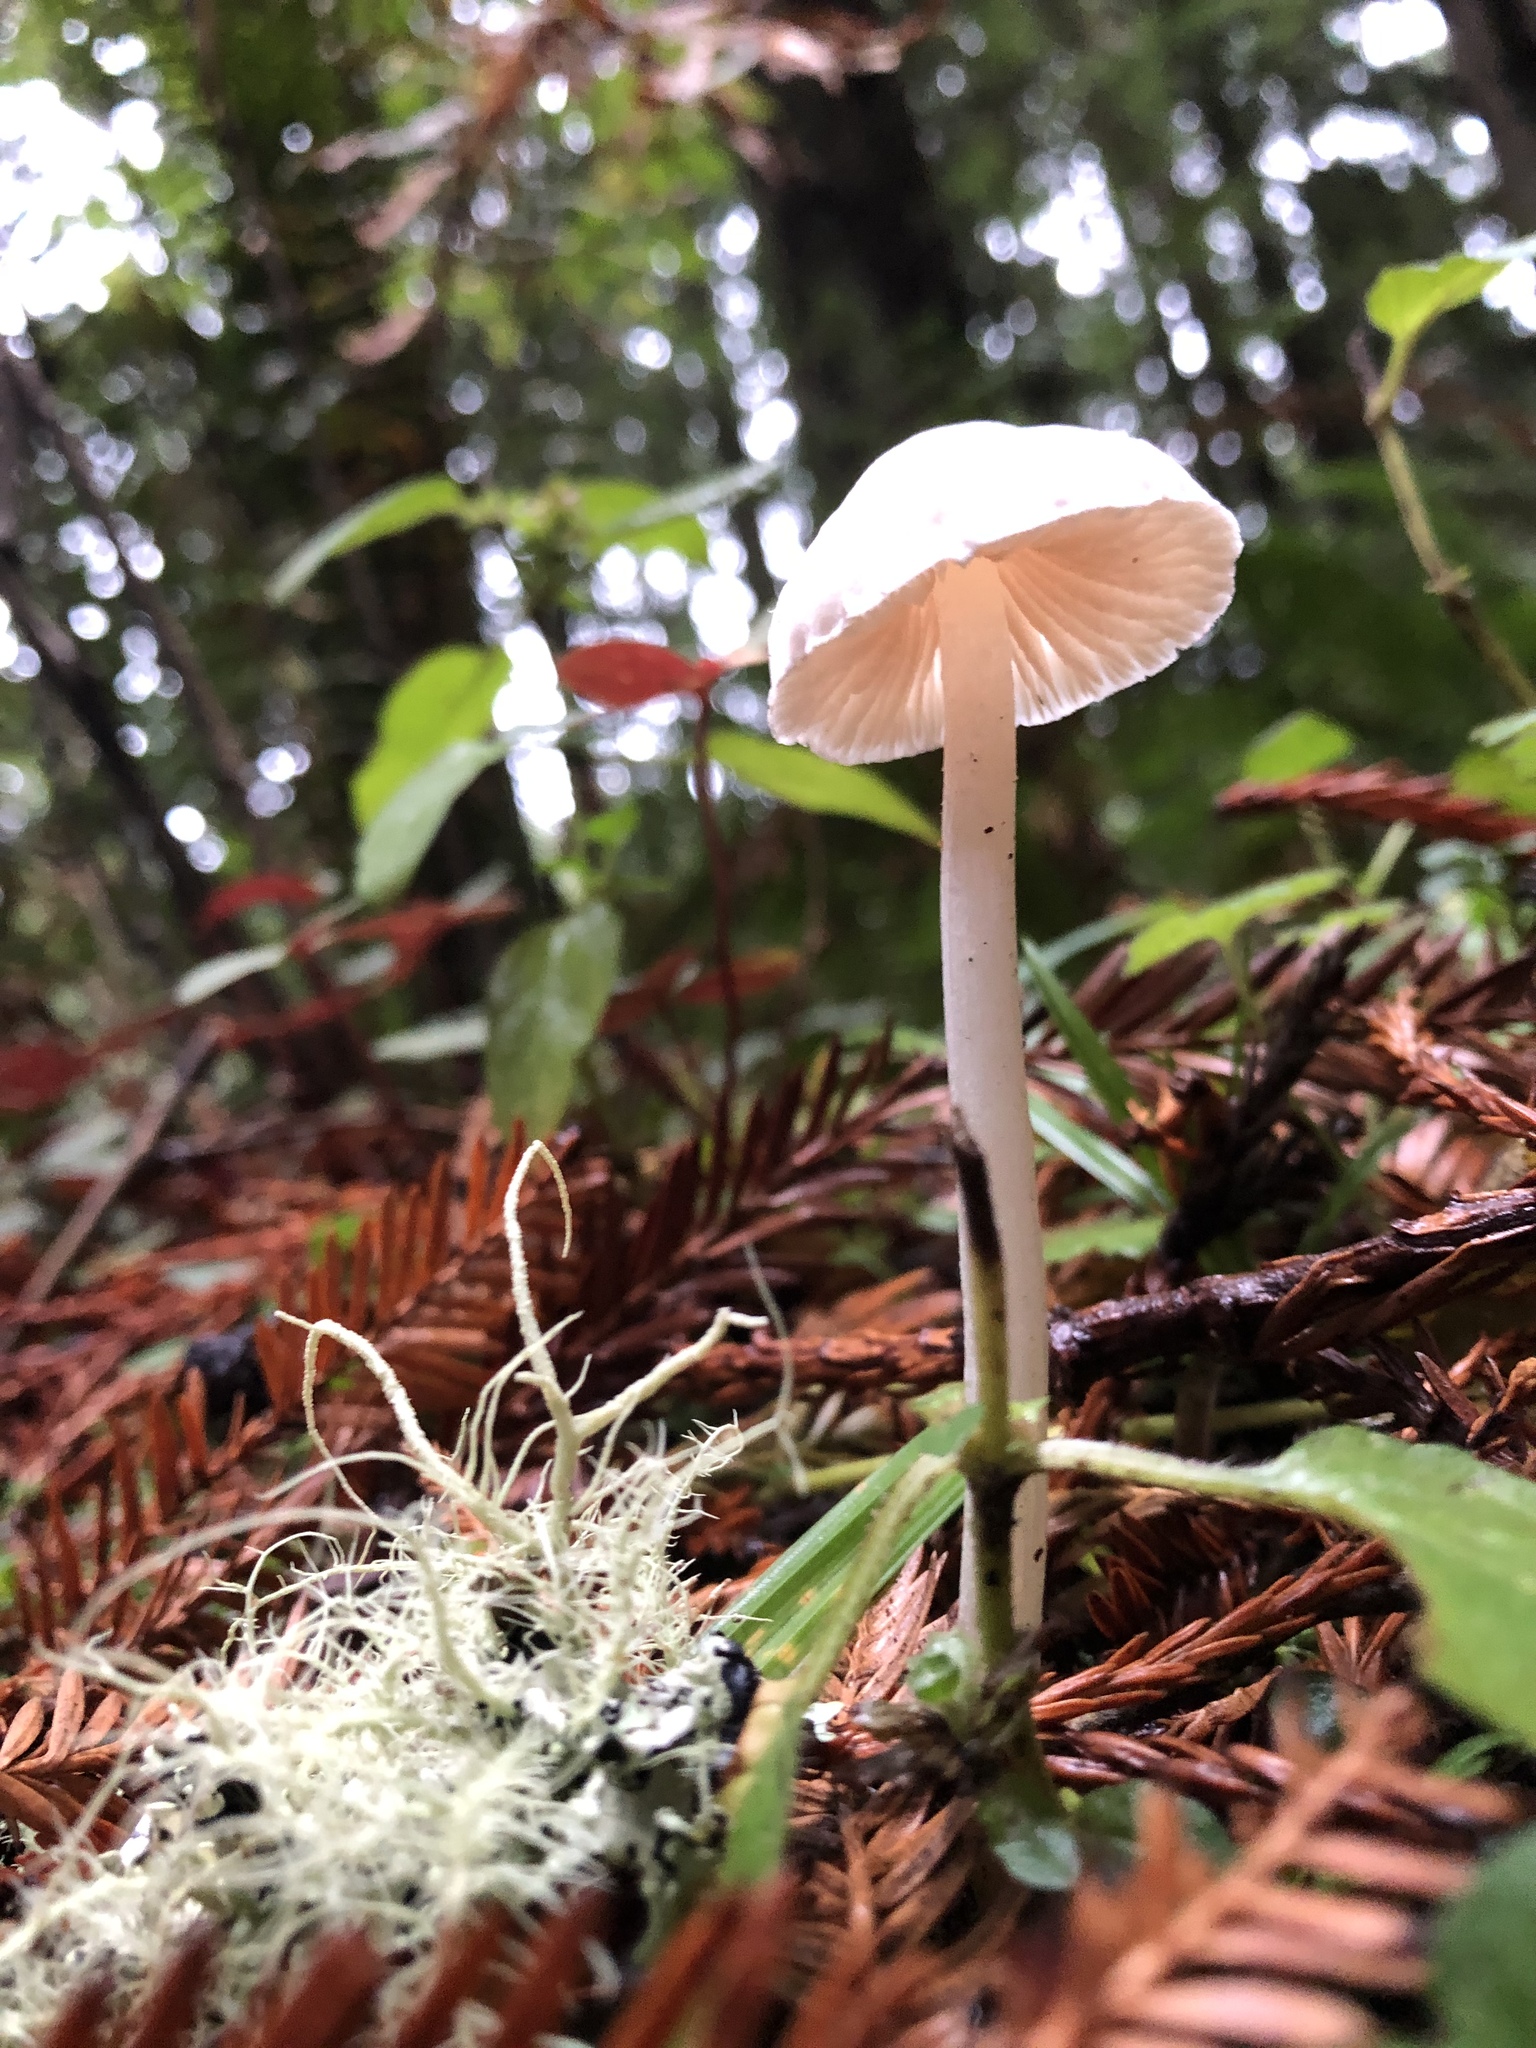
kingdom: Fungi
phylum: Basidiomycota
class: Agaricomycetes
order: Agaricales
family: Entolomataceae
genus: Entoloma
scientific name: Entoloma adnatifolium
